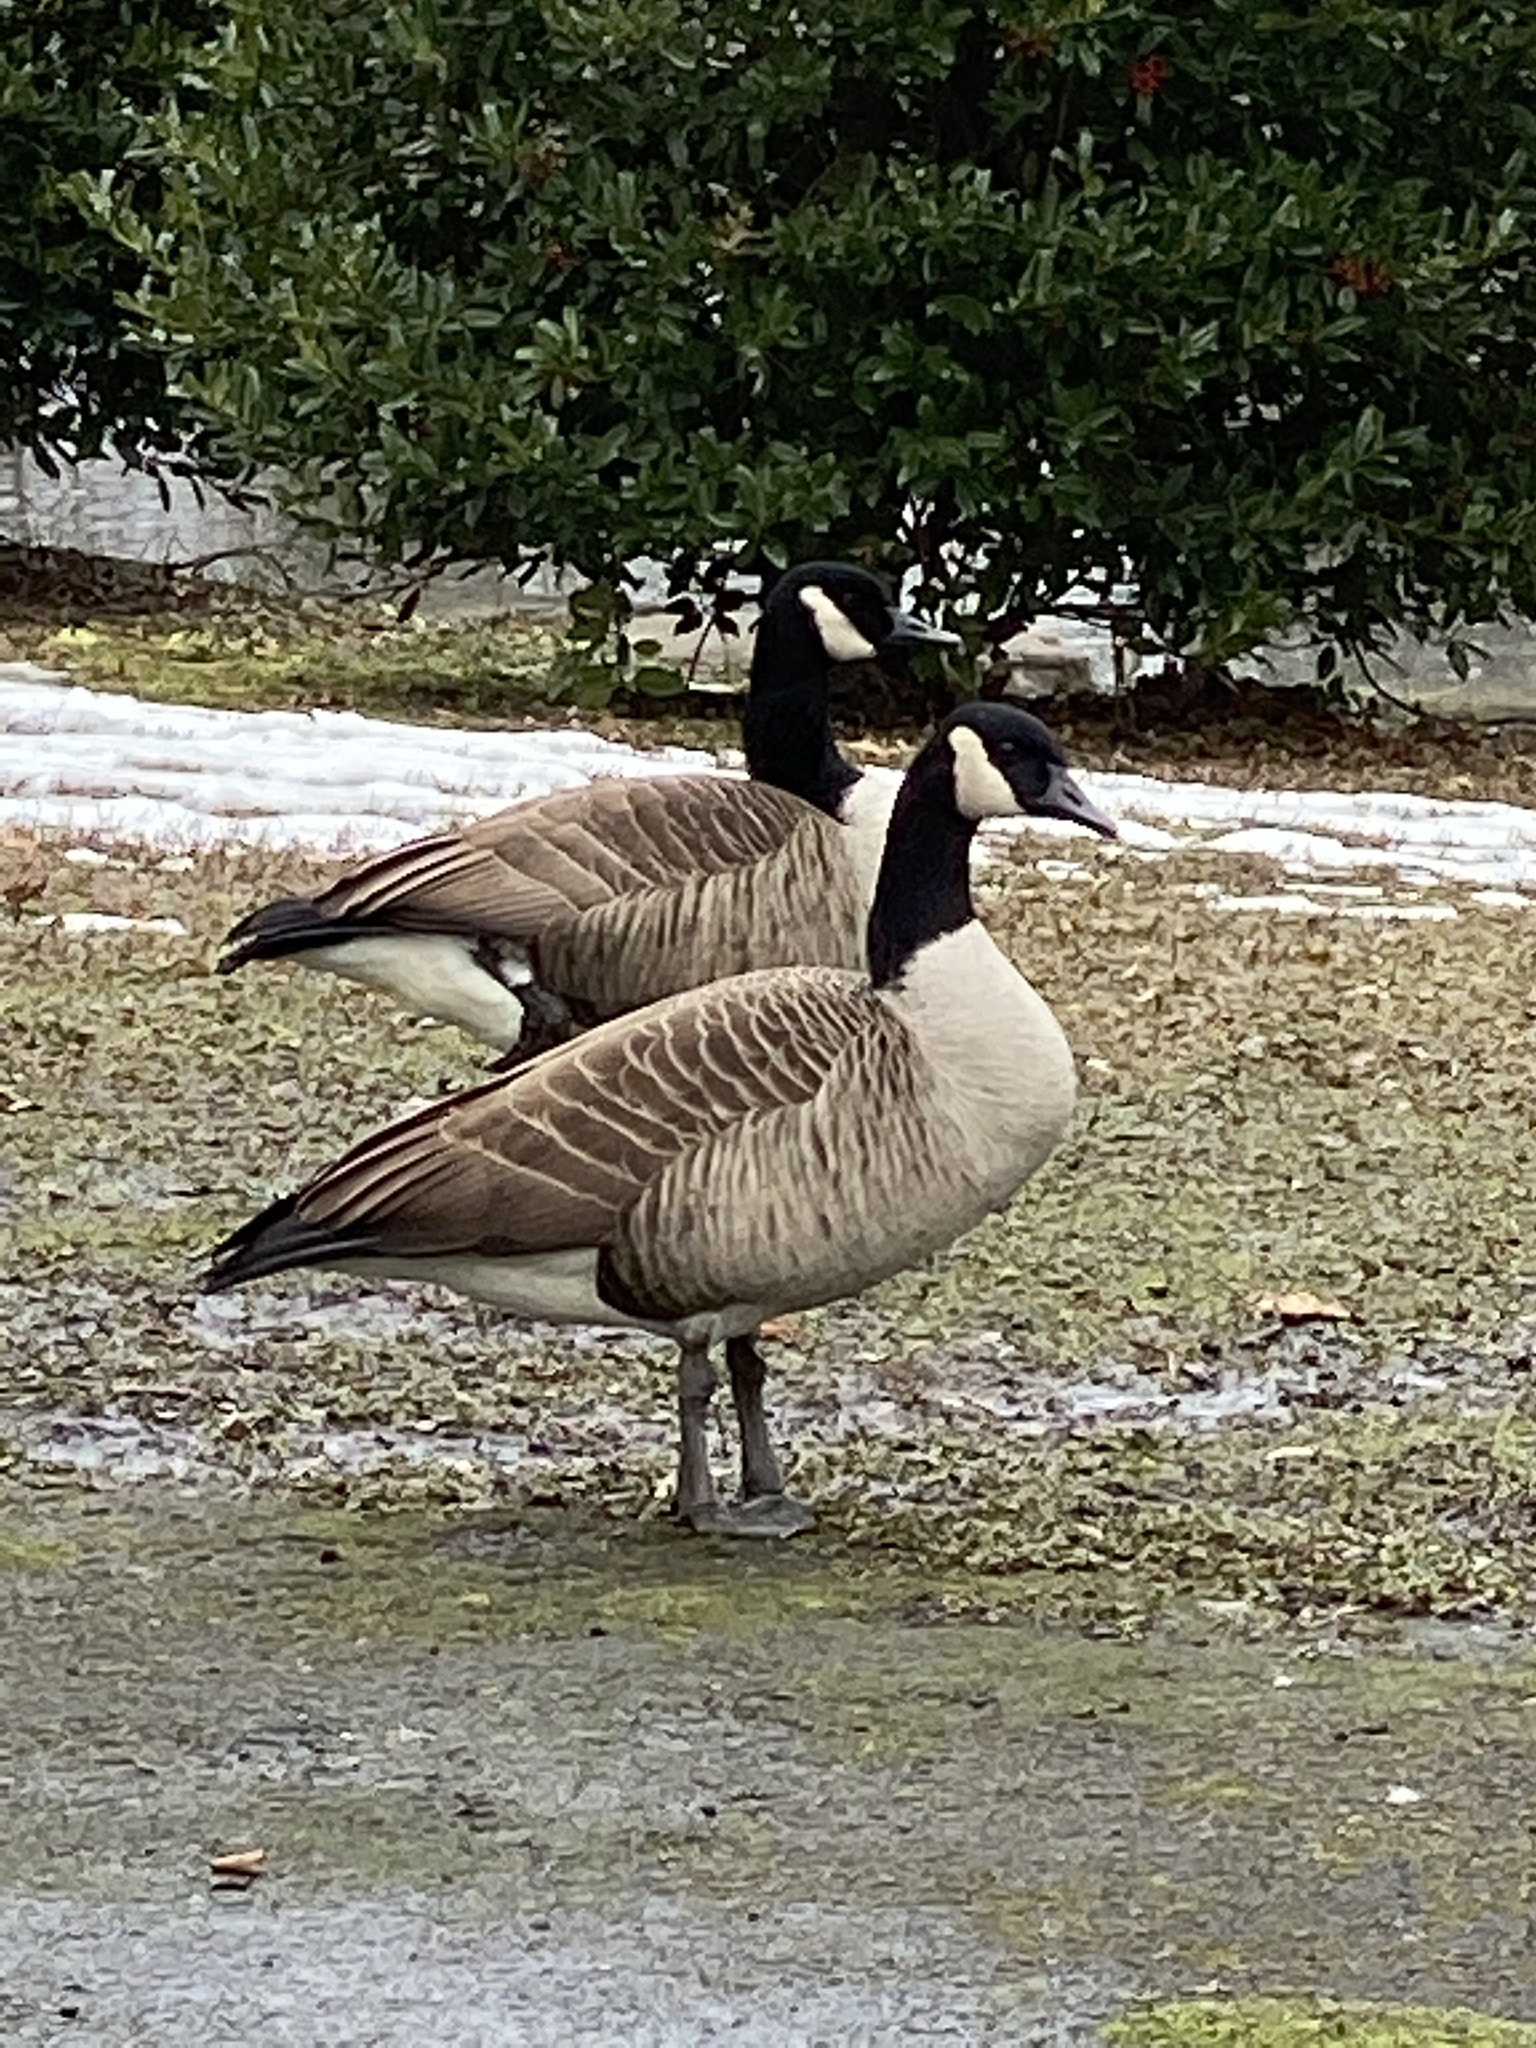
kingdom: Animalia
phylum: Chordata
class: Aves
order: Anseriformes
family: Anatidae
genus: Branta
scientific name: Branta canadensis
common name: Canada goose
